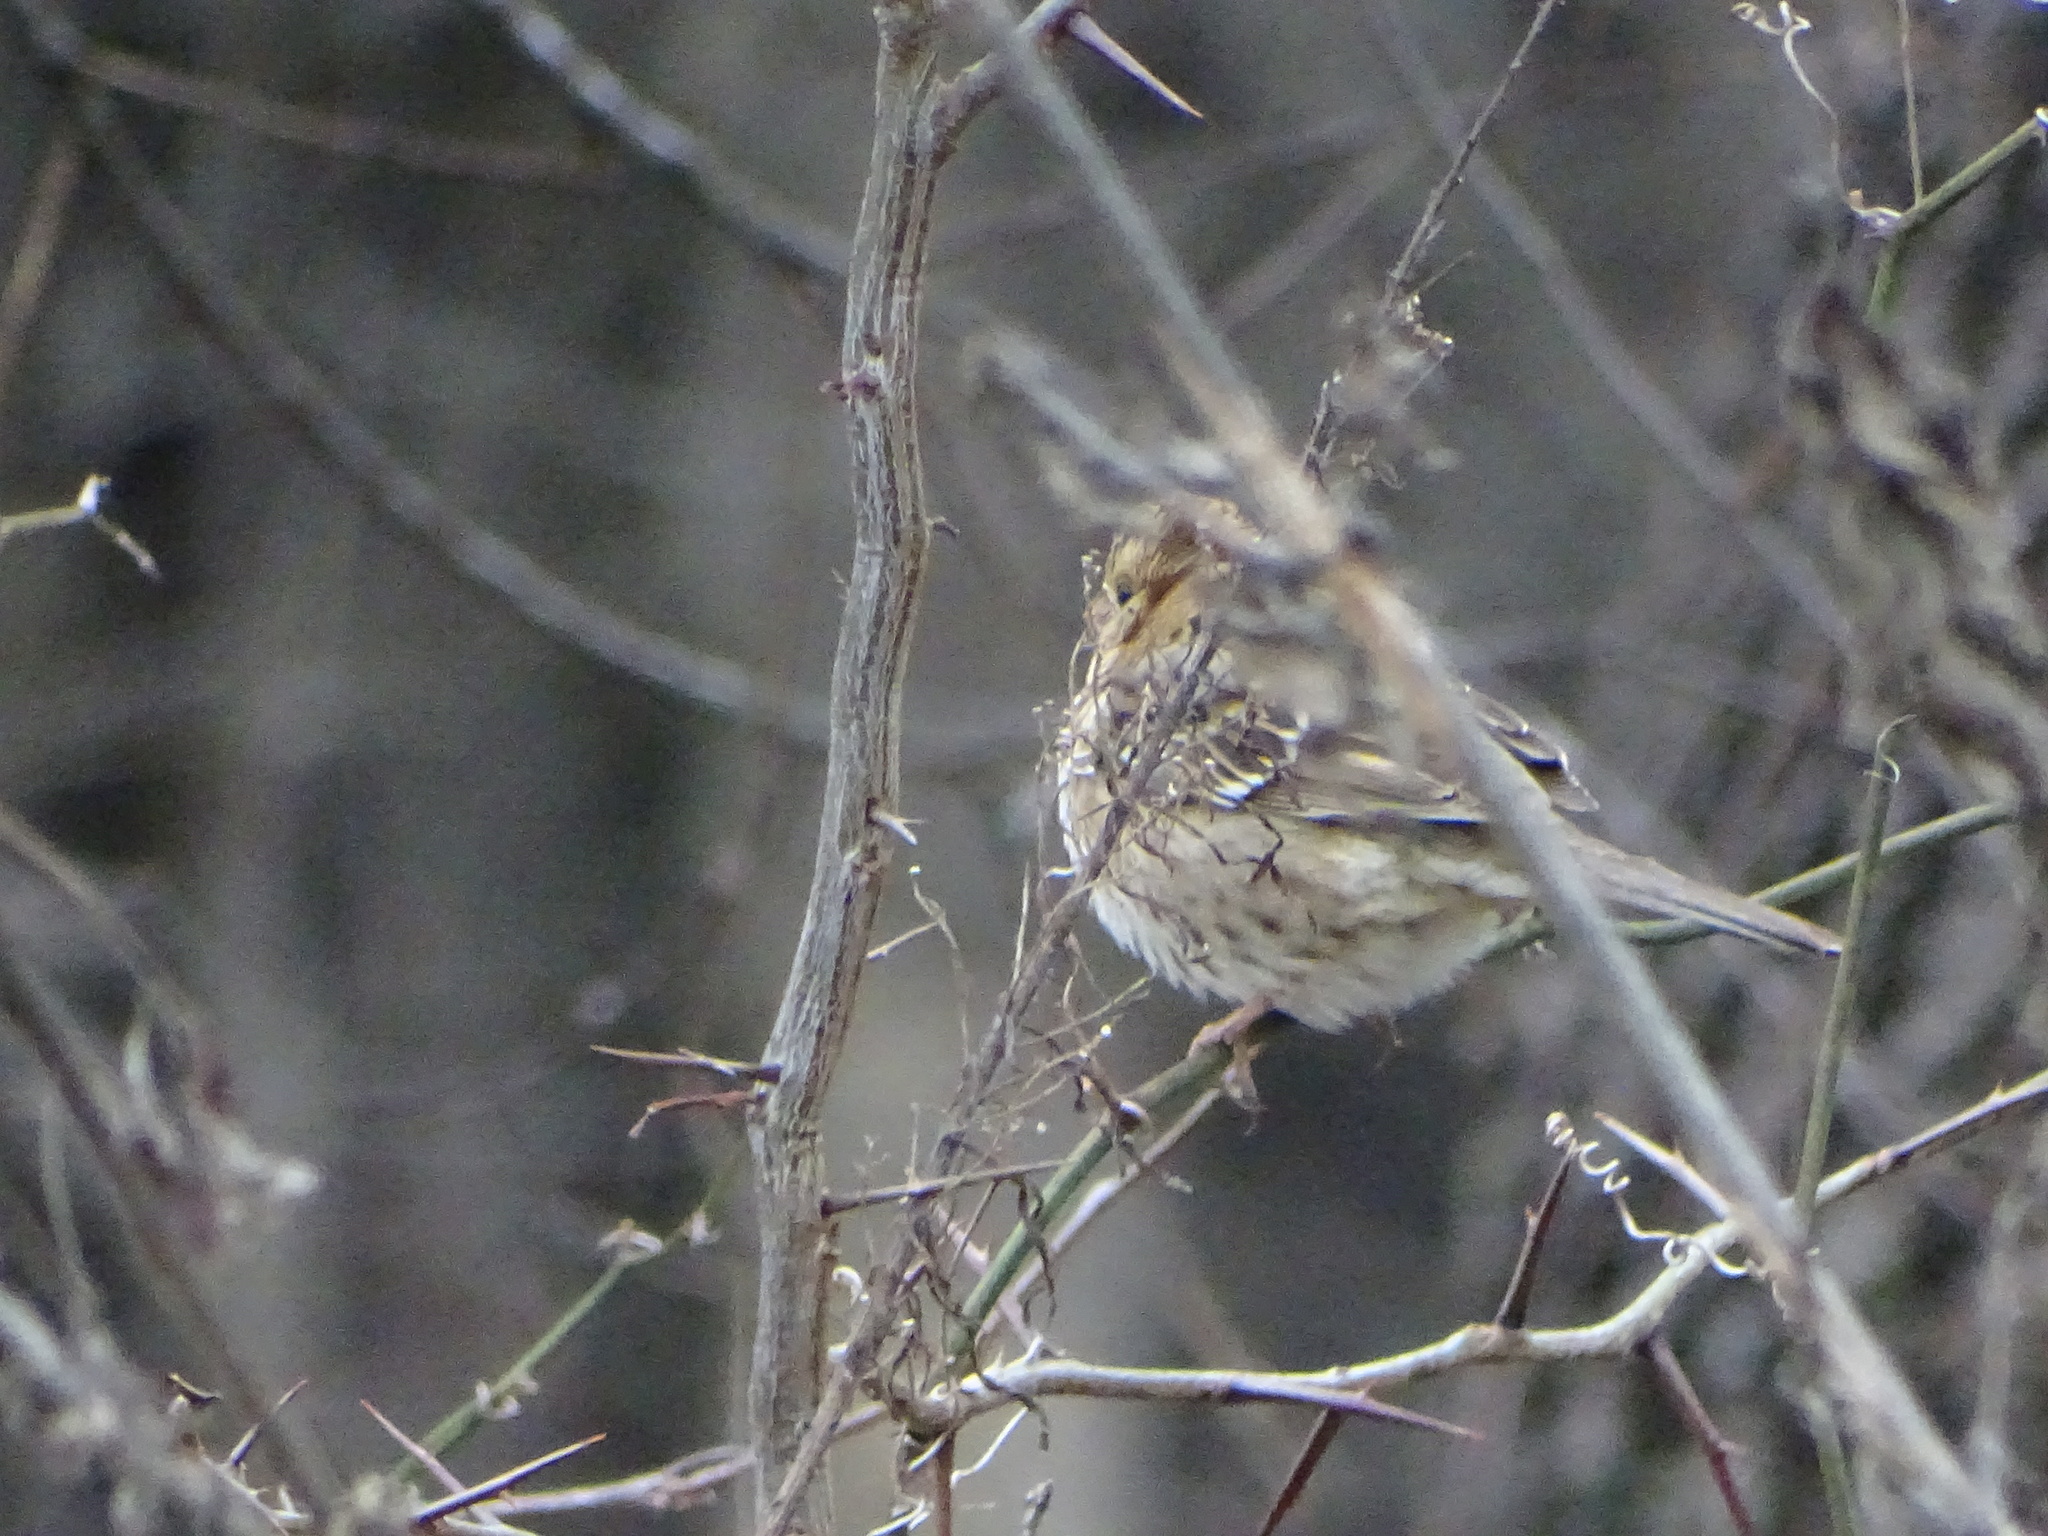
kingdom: Animalia
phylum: Chordata
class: Aves
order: Passeriformes
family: Passerellidae
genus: Zonotrichia
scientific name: Zonotrichia querula
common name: Harris's sparrow
